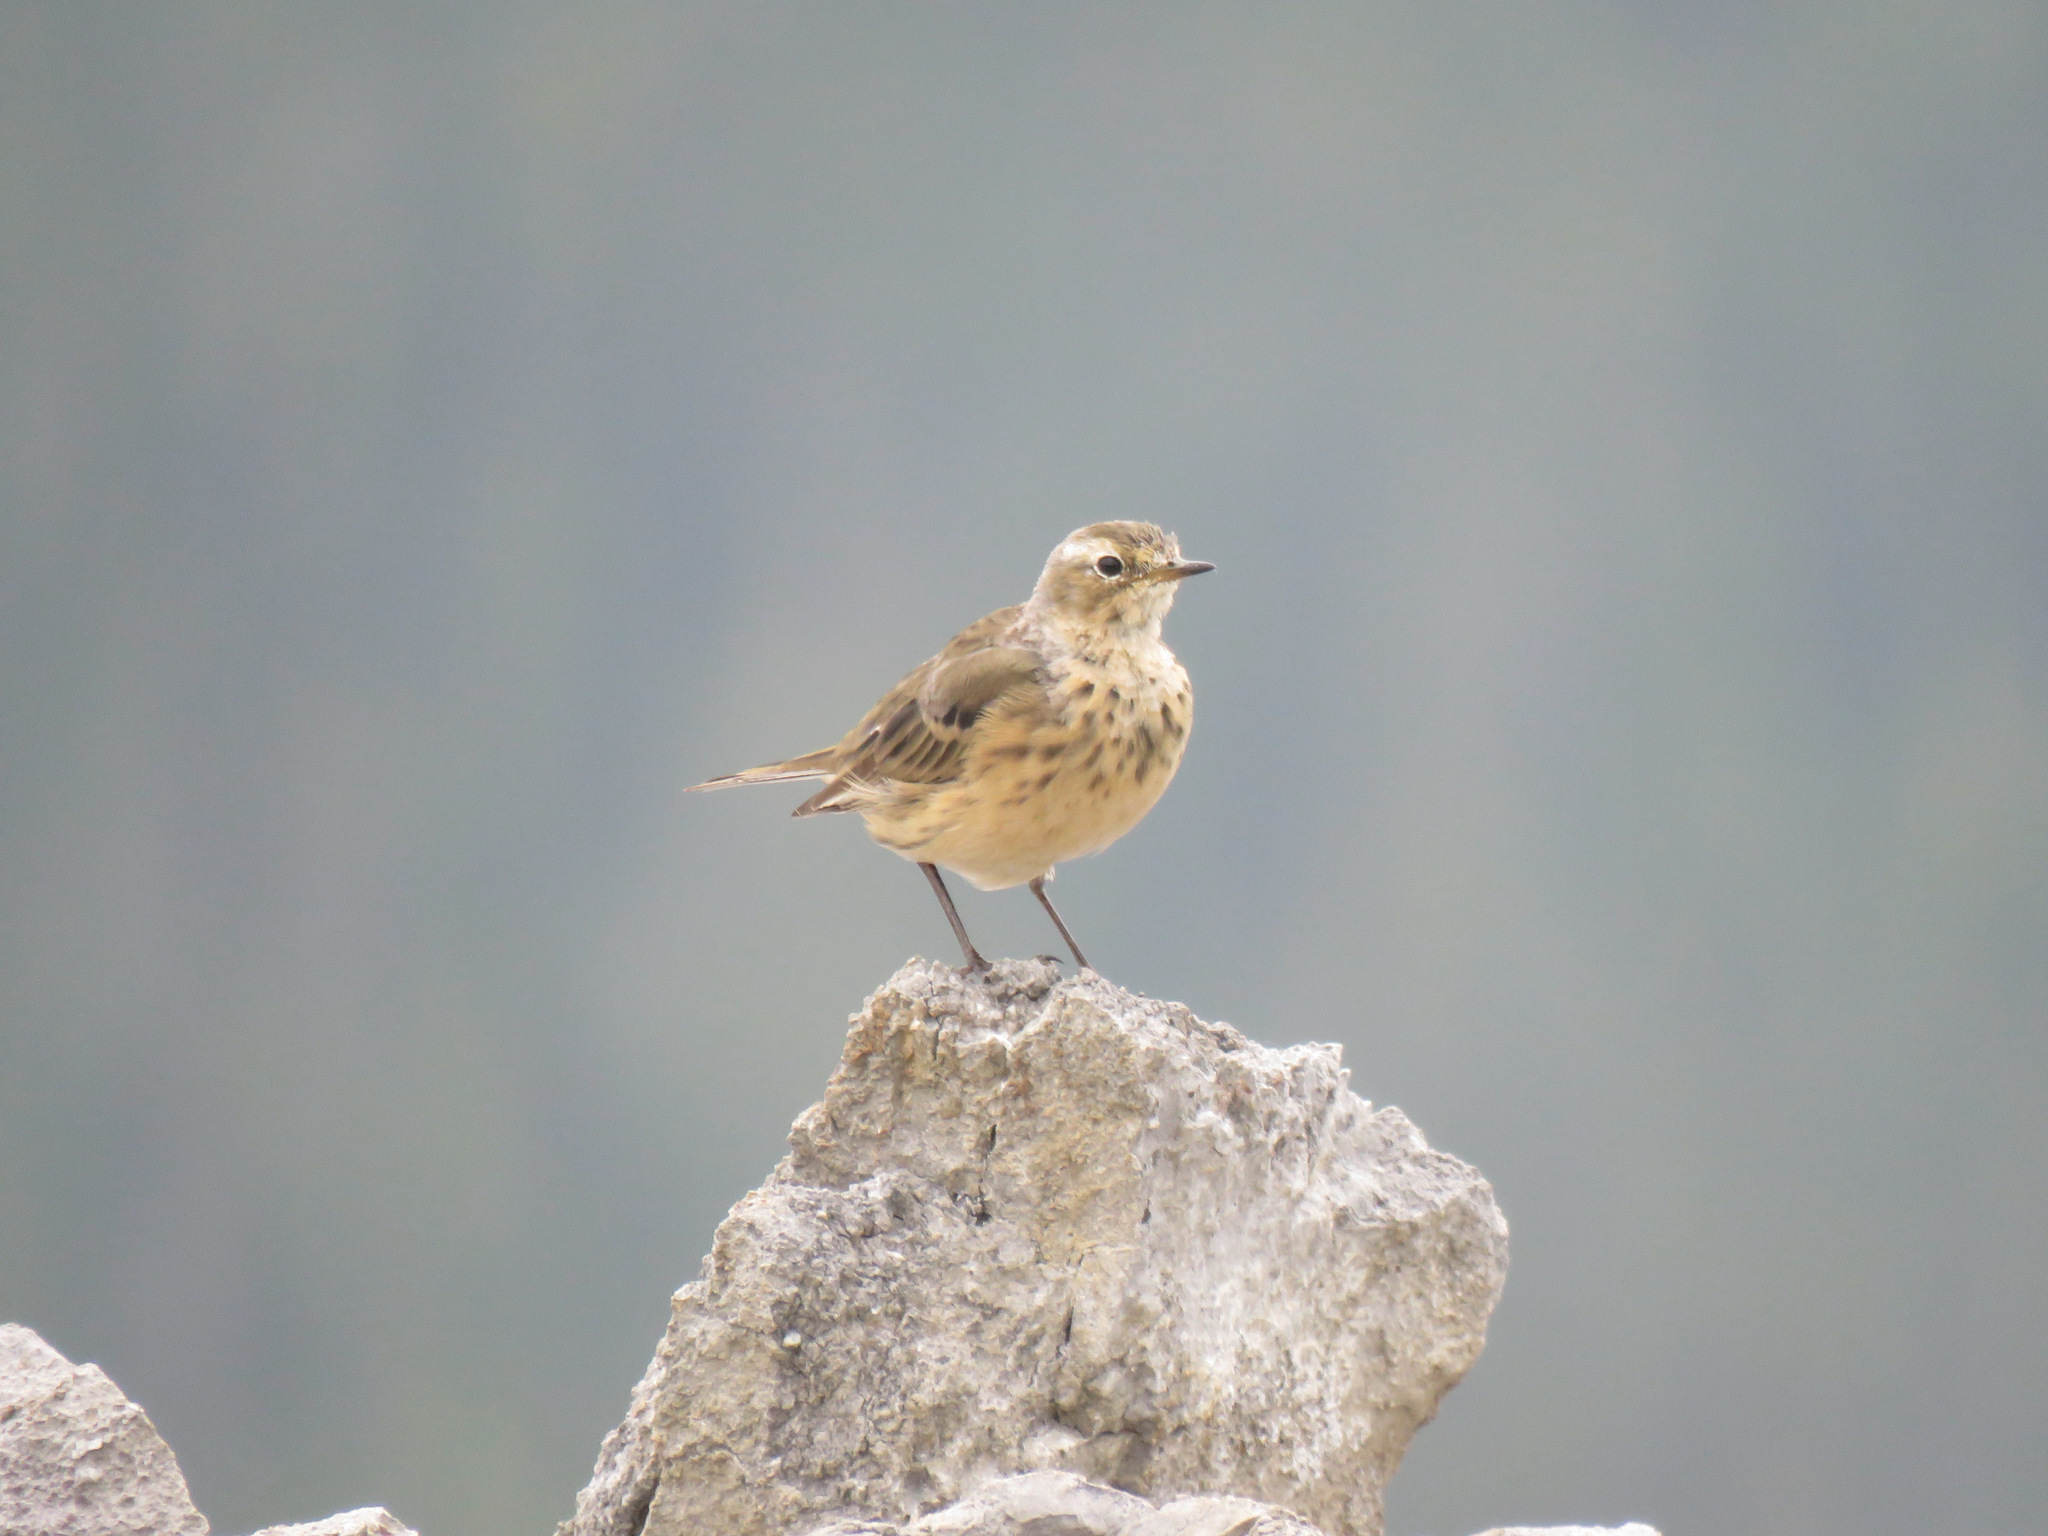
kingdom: Animalia
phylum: Chordata
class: Aves
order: Passeriformes
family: Motacillidae
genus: Anthus
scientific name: Anthus rubescens
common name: Buff-bellied pipit
